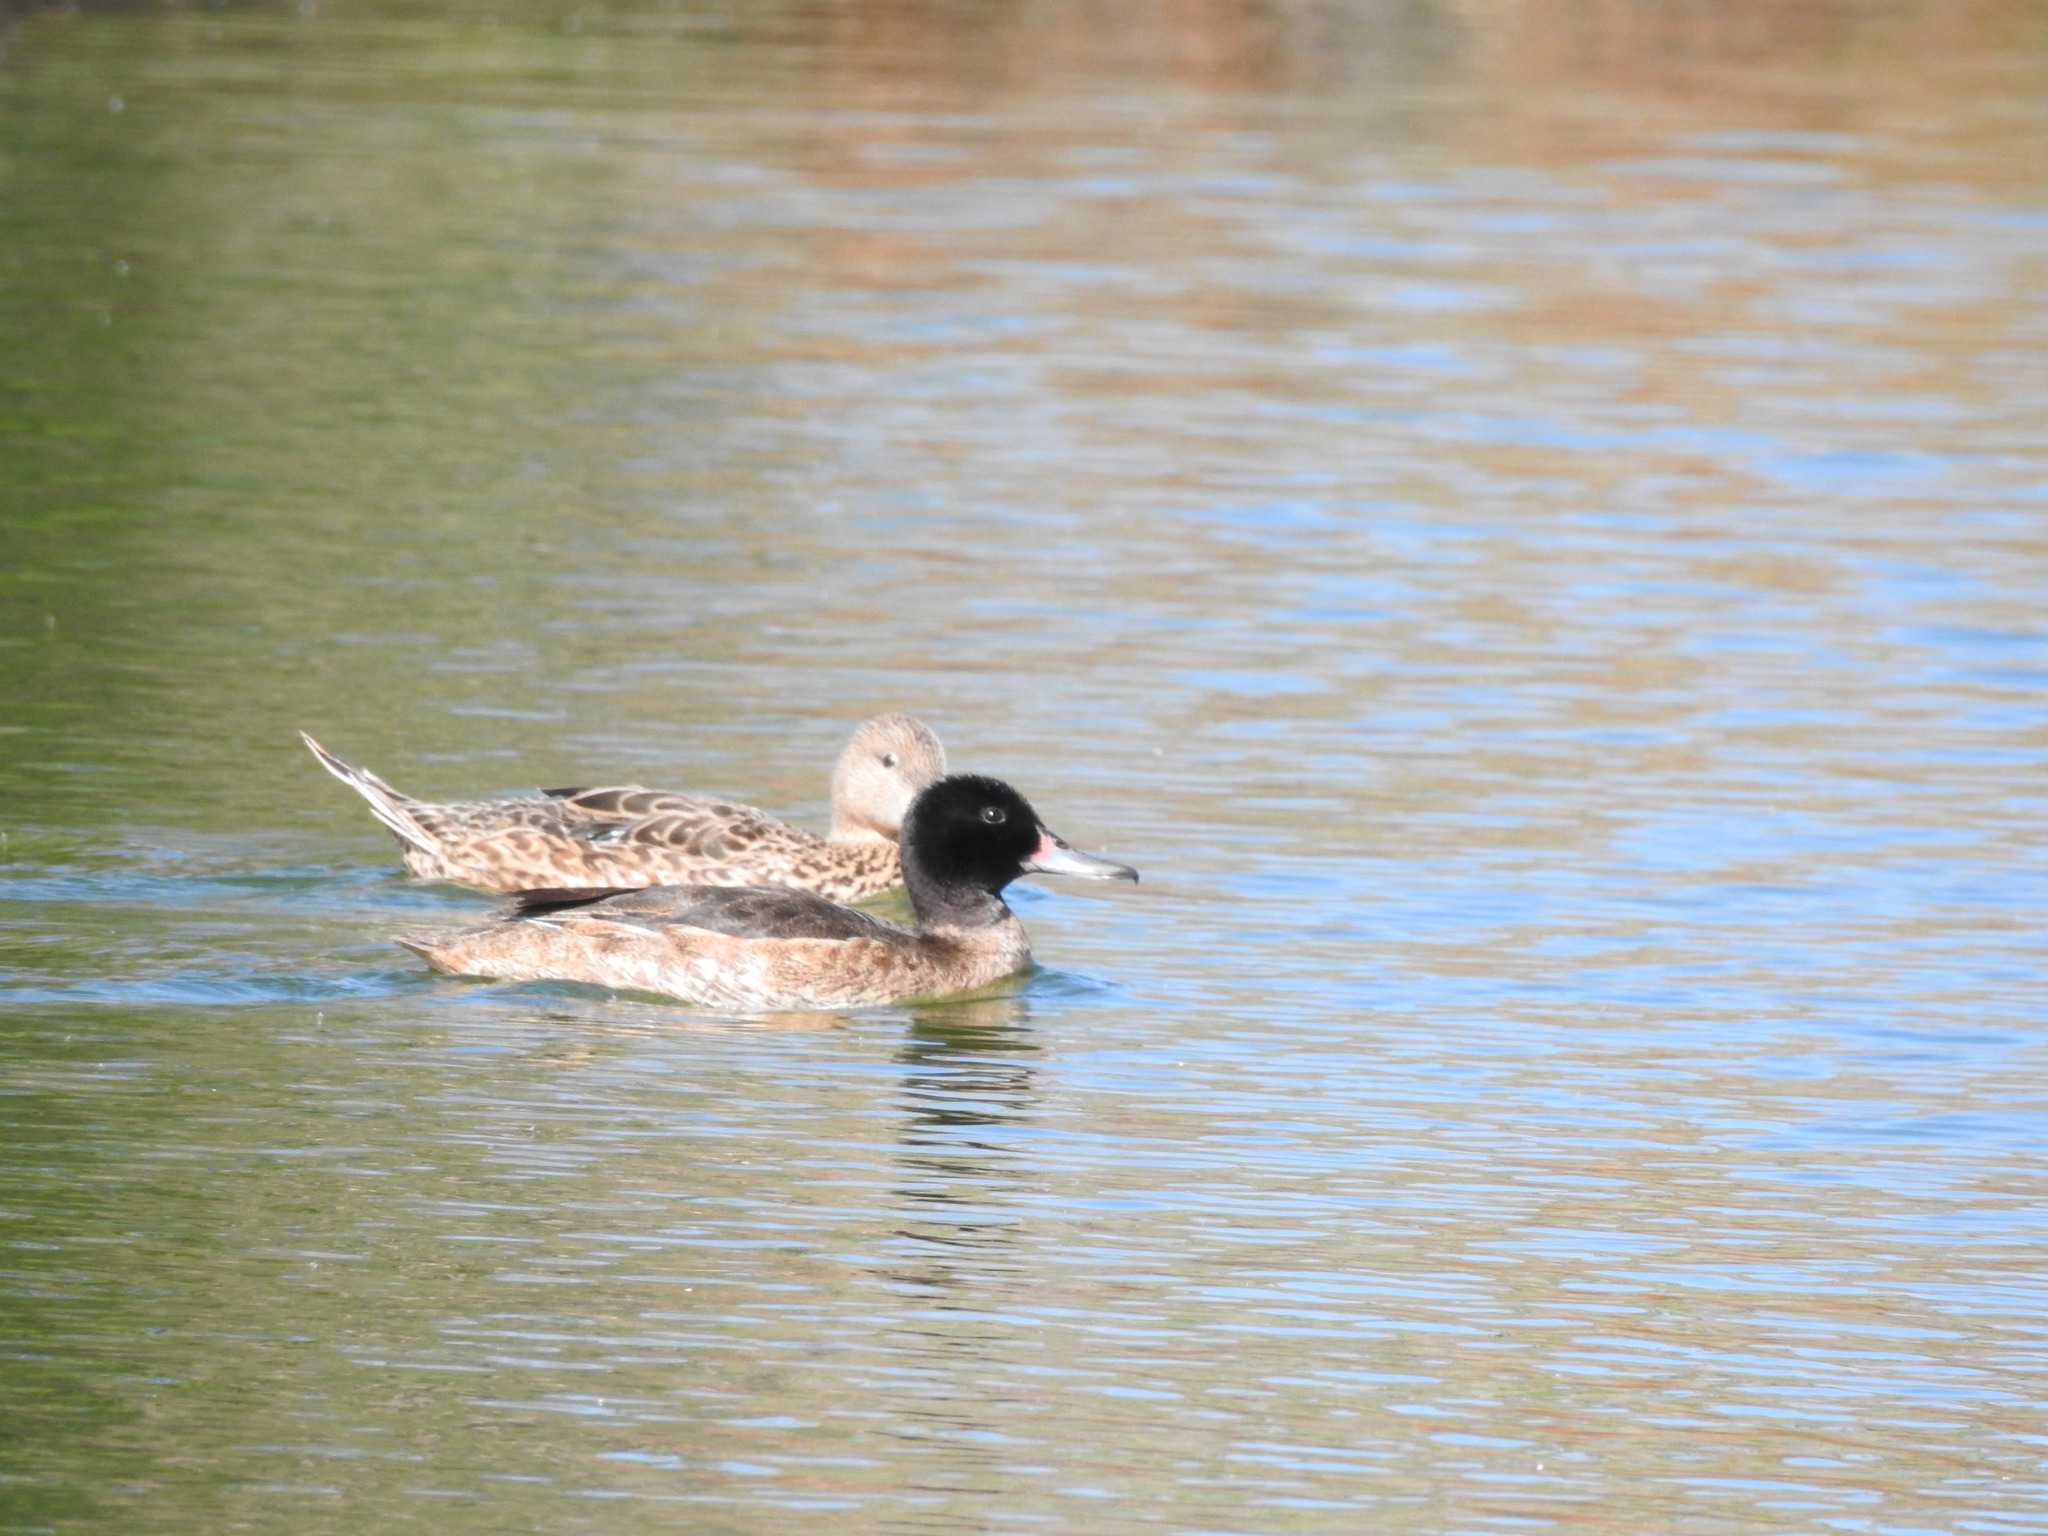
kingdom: Animalia
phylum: Chordata
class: Aves
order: Anseriformes
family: Anatidae
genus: Heteronetta
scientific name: Heteronetta atricapilla
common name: Black-headed duck
